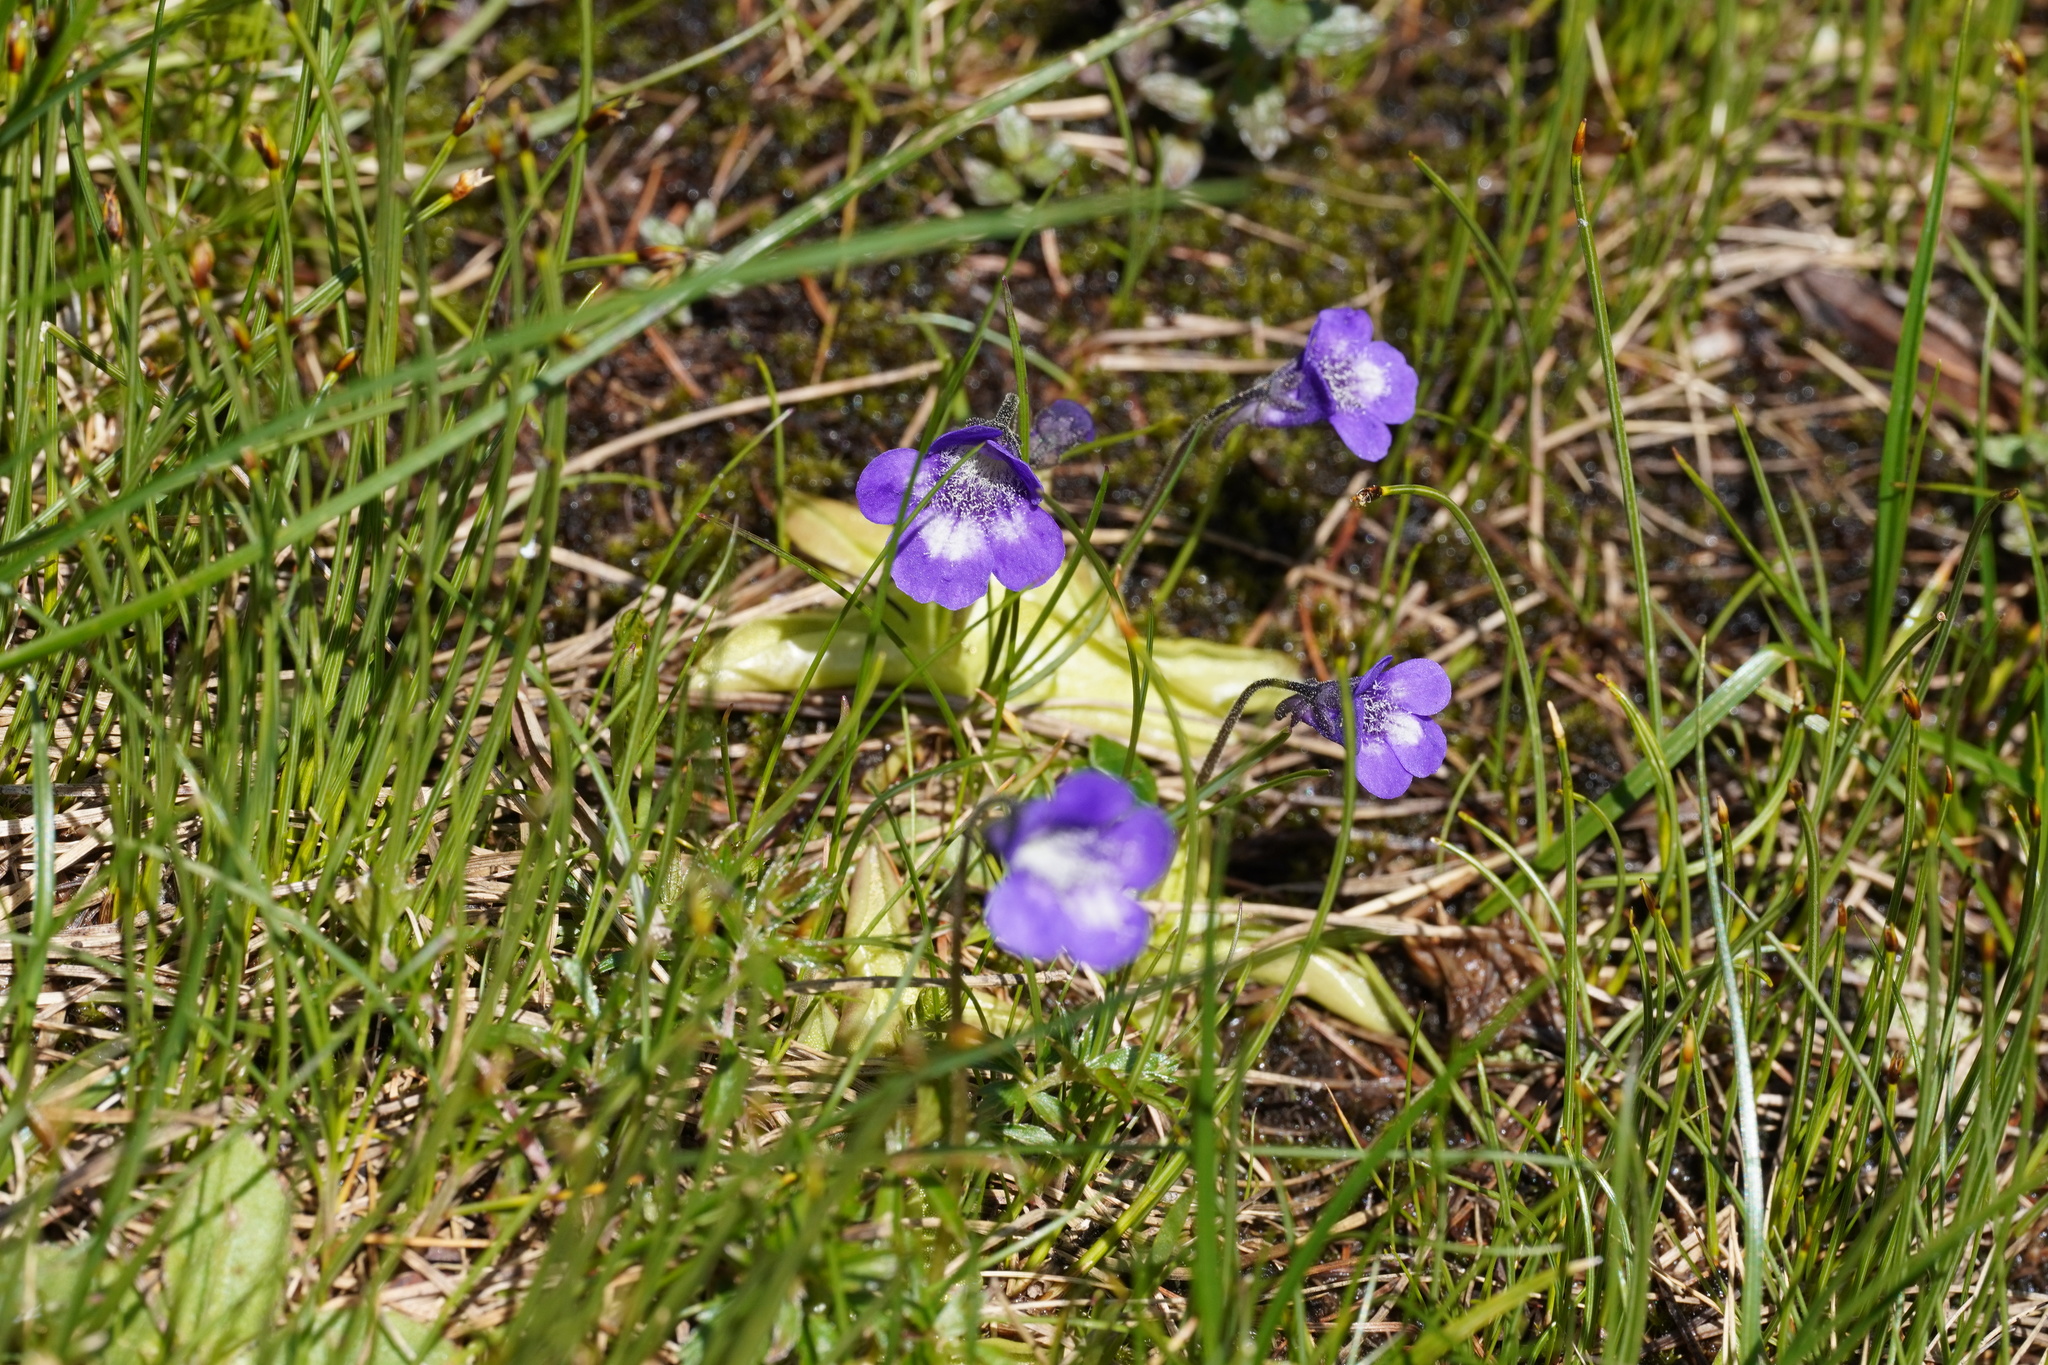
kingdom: Plantae
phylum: Tracheophyta
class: Magnoliopsida
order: Lamiales
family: Lentibulariaceae
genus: Pinguicula
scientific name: Pinguicula leptoceras
